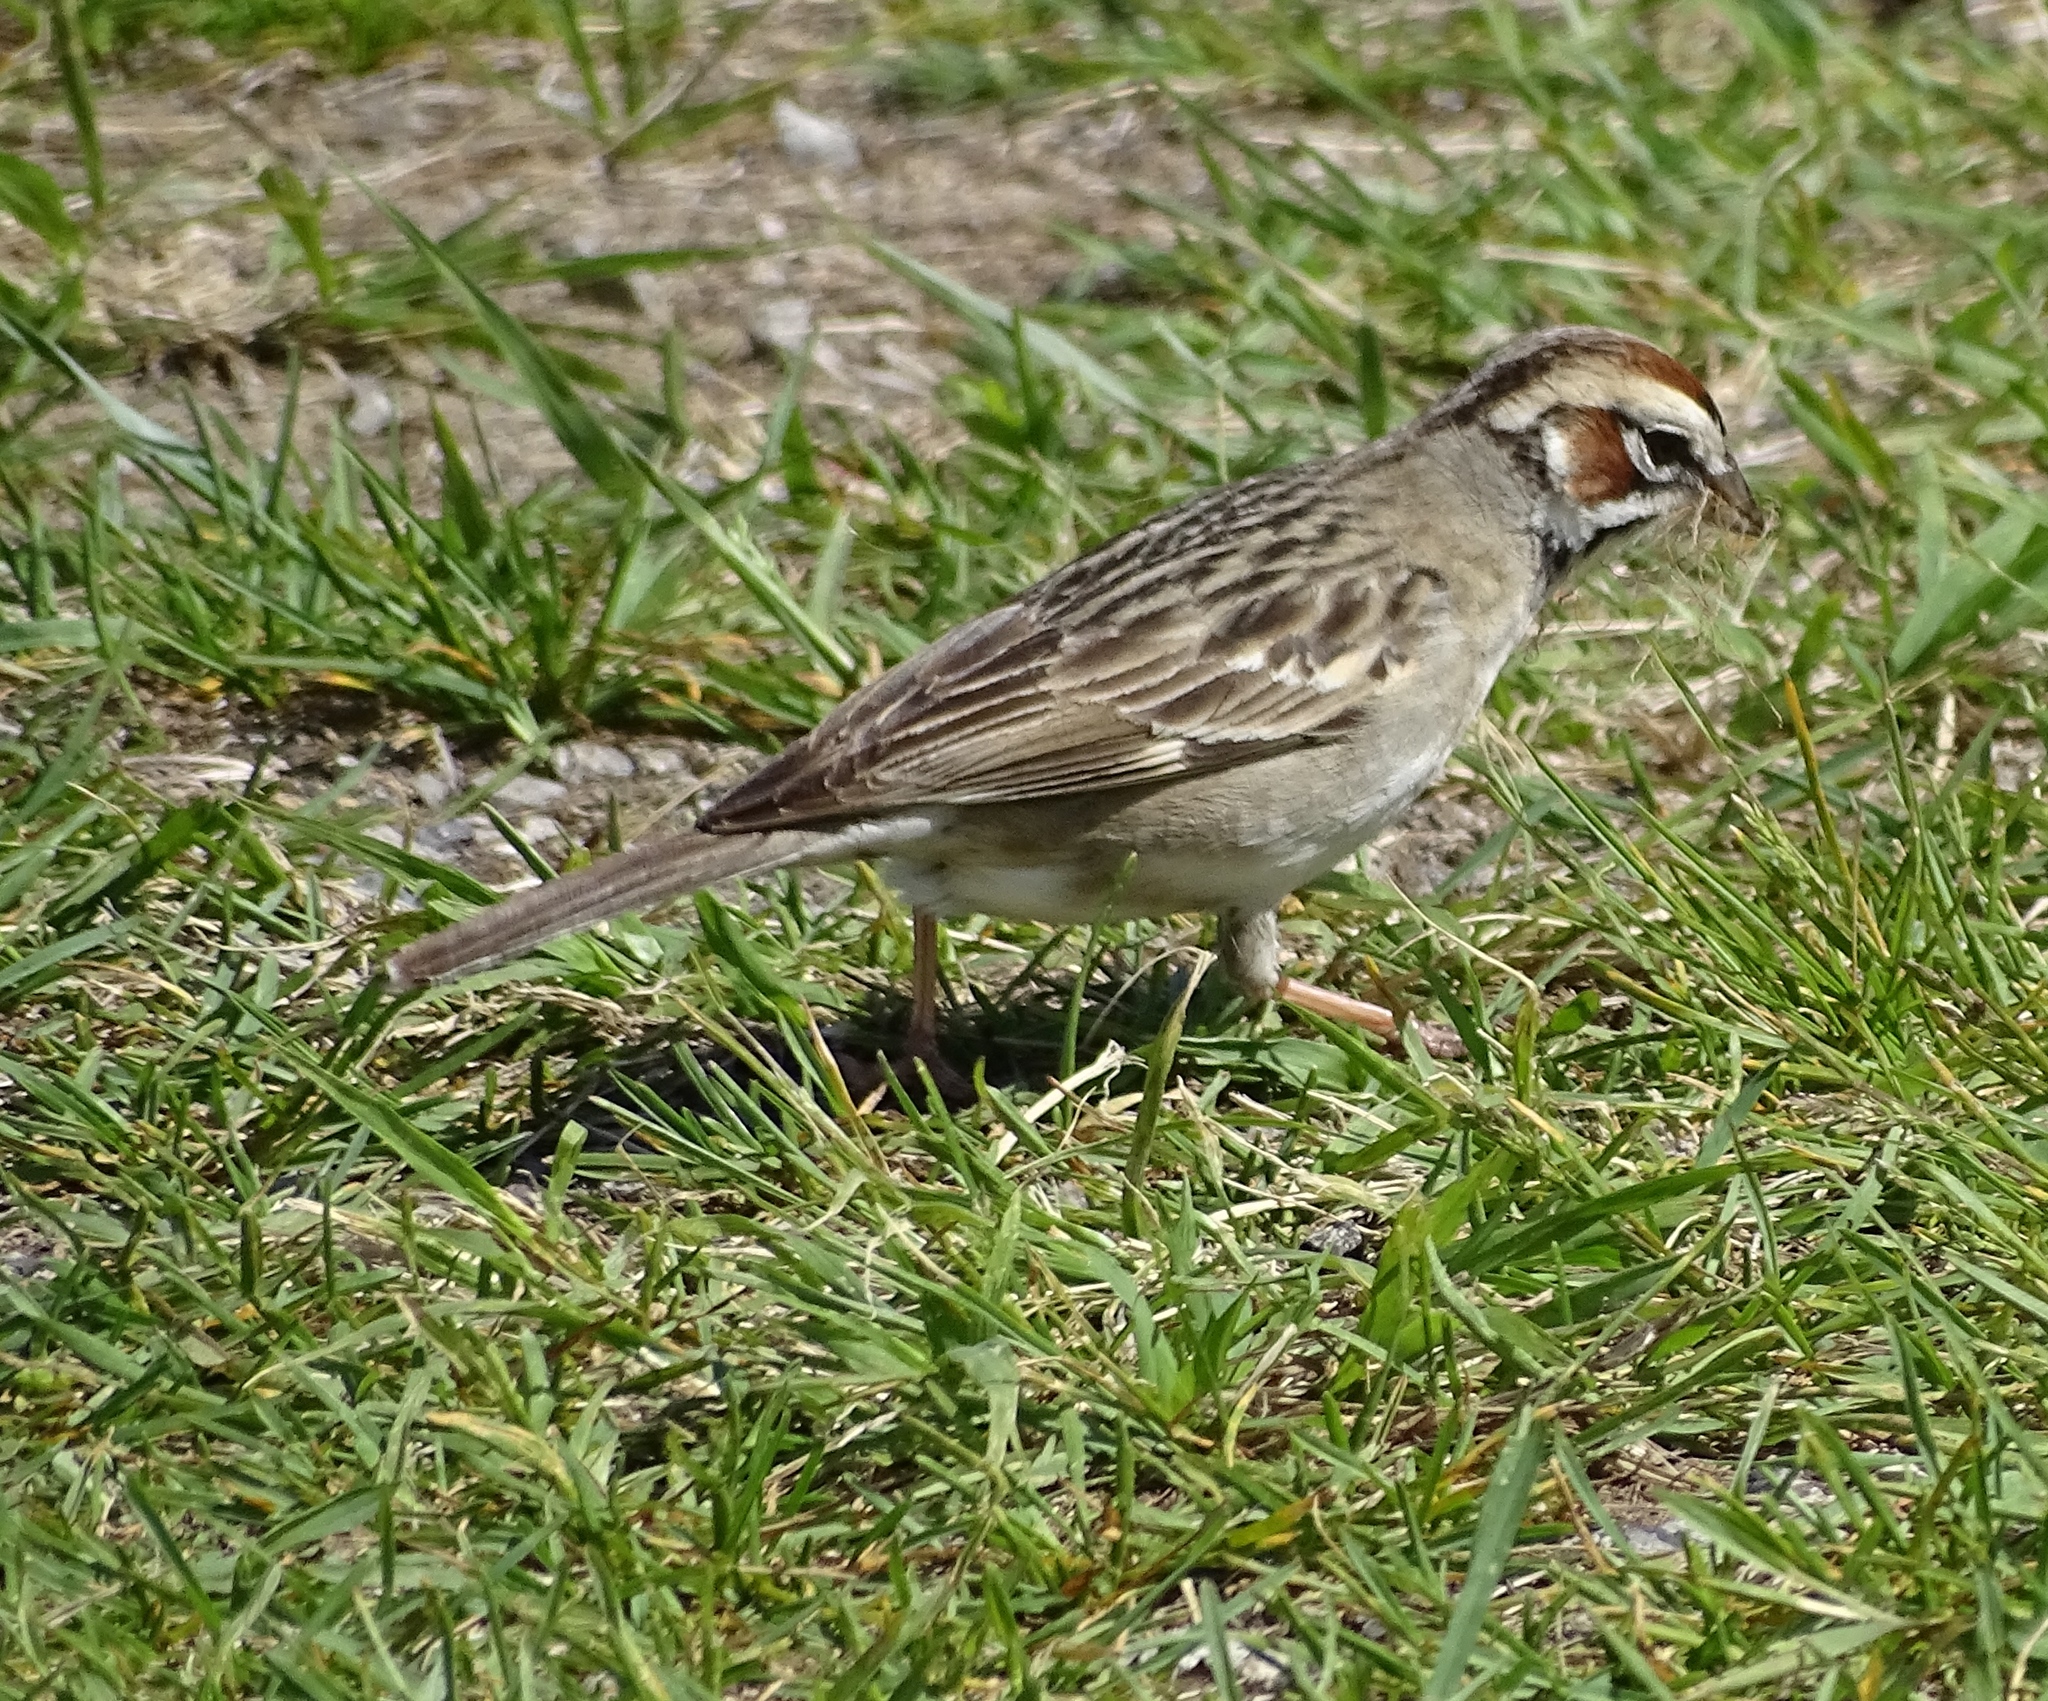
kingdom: Animalia
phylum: Chordata
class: Aves
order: Passeriformes
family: Passerellidae
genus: Chondestes
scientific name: Chondestes grammacus
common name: Lark sparrow
